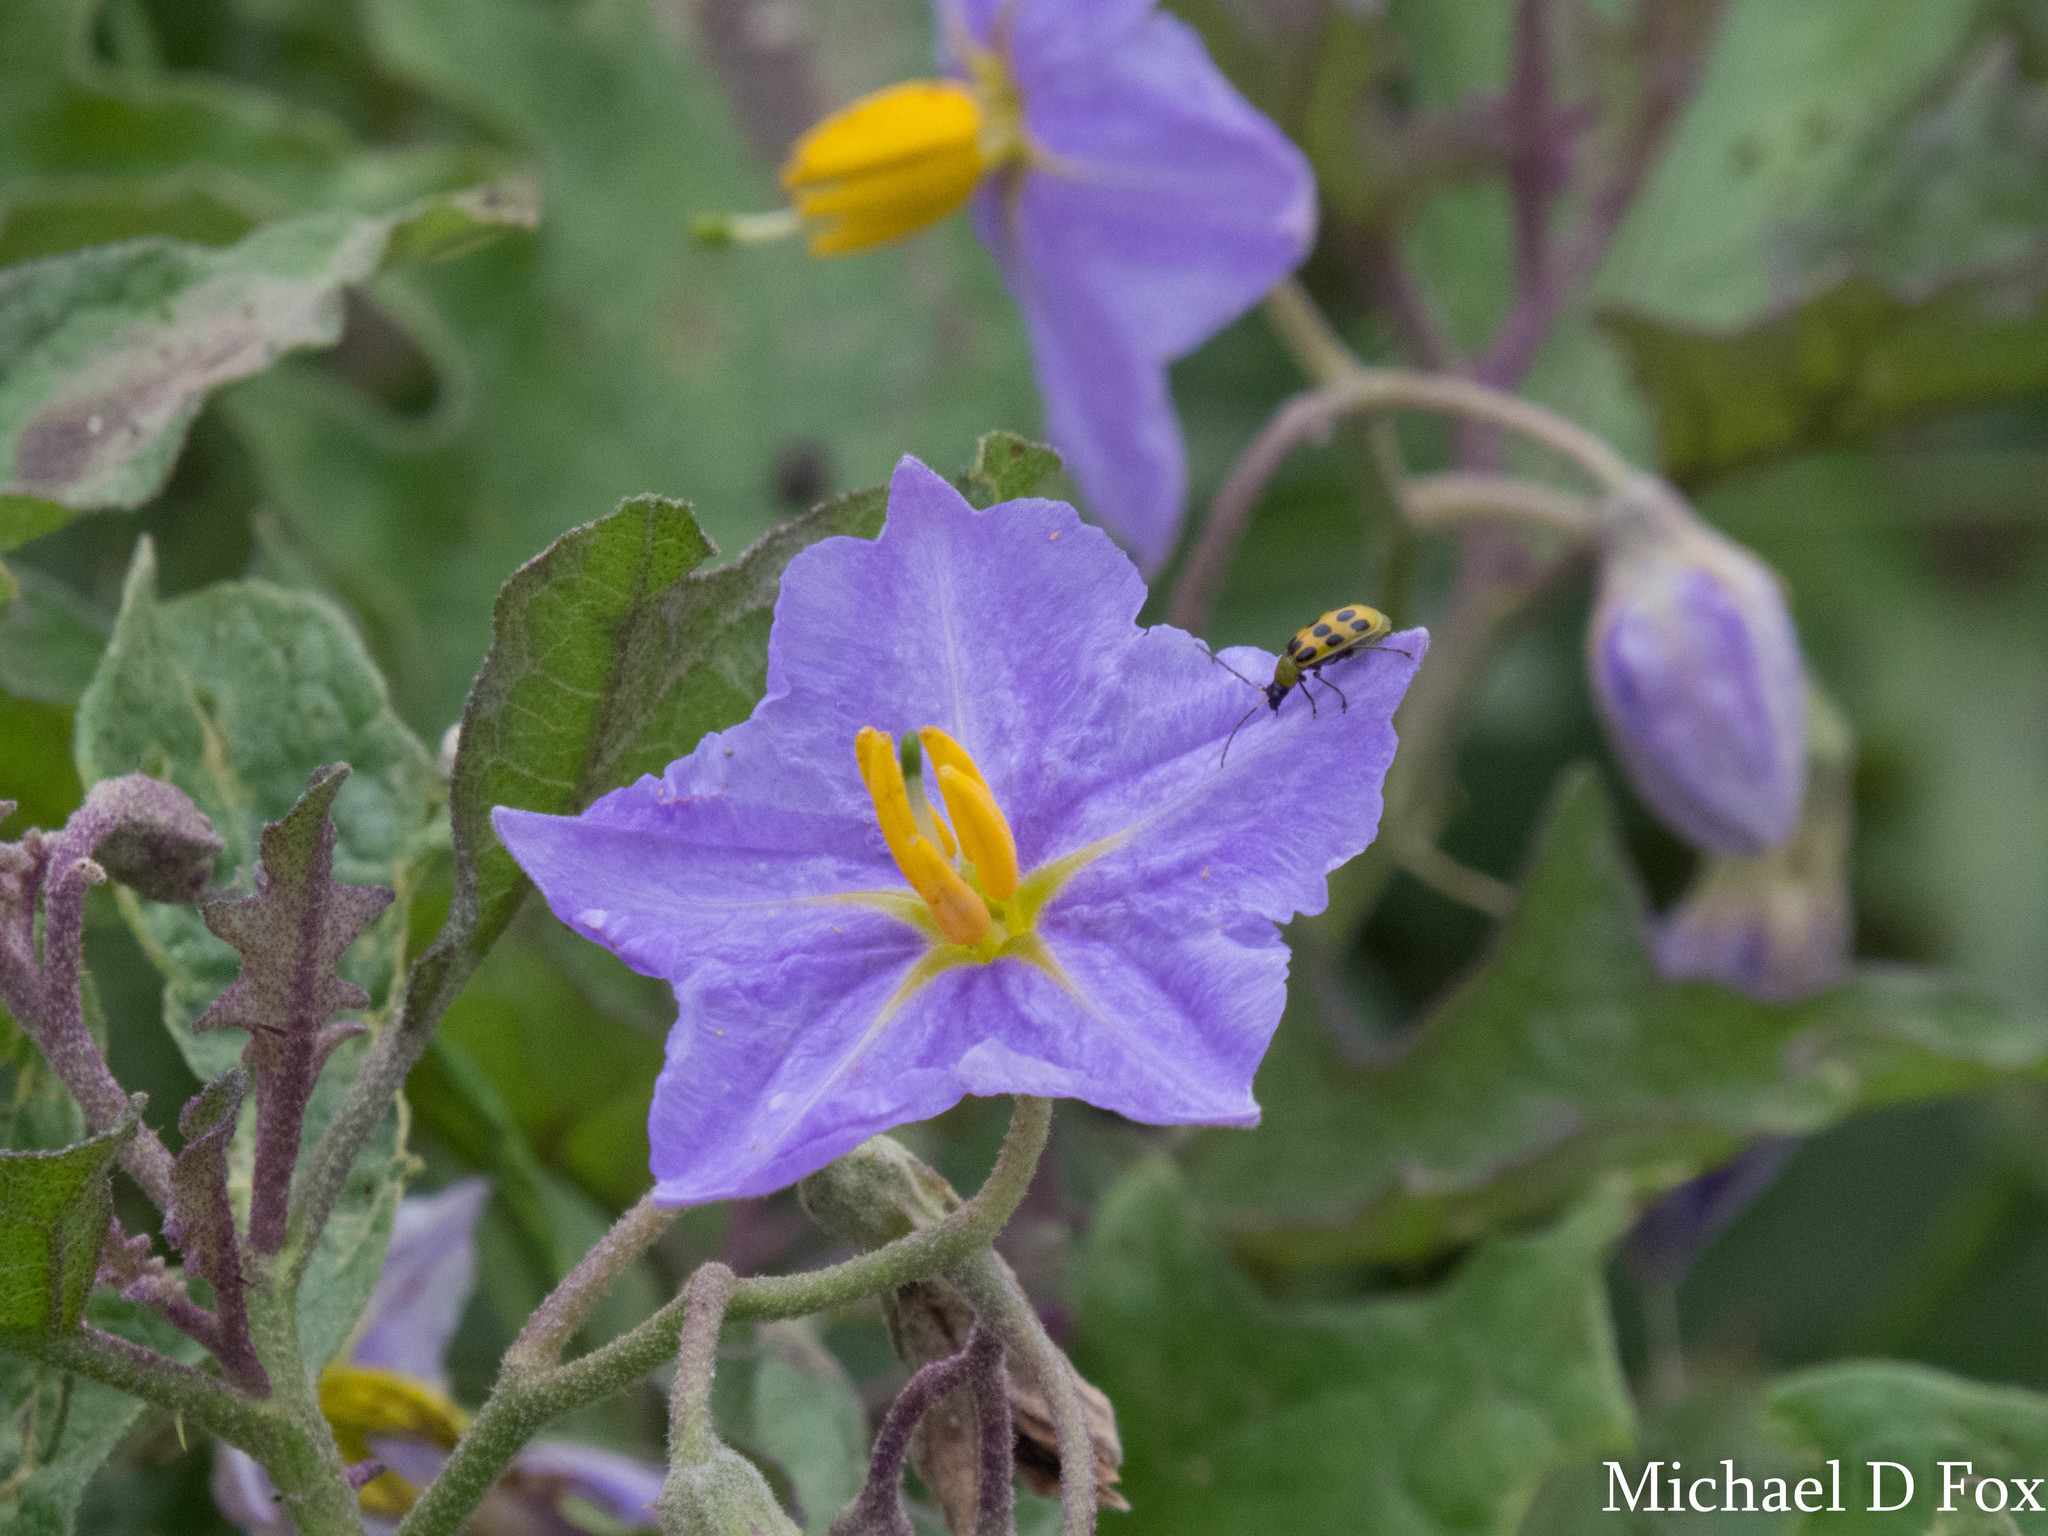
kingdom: Plantae
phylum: Tracheophyta
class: Magnoliopsida
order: Solanales
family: Solanaceae
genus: Solanum
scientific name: Solanum dimidiatum
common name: Carolina horse-nettle
